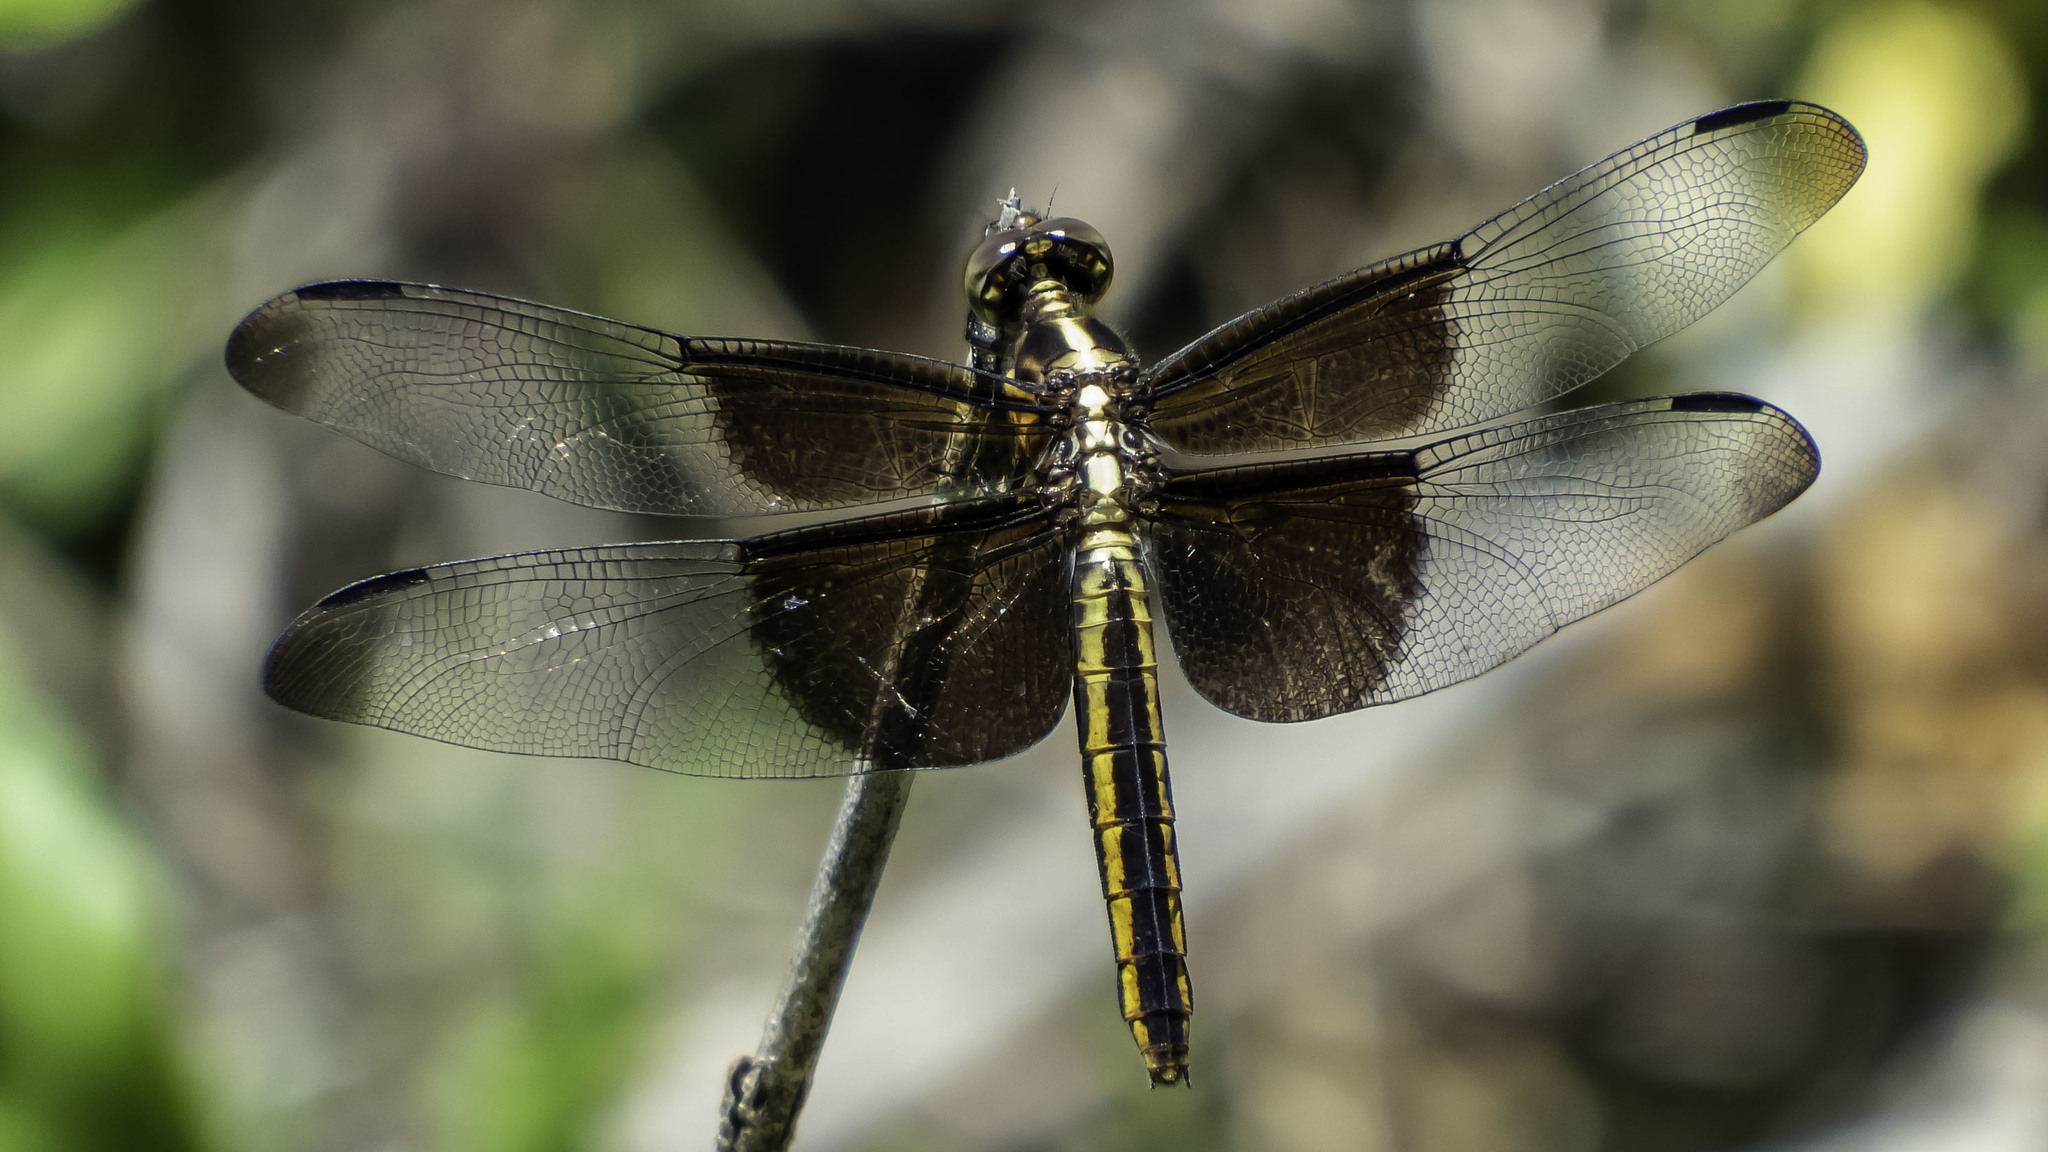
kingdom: Animalia
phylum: Arthropoda
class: Insecta
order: Odonata
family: Libellulidae
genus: Libellula
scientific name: Libellula luctuosa
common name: Widow skimmer
